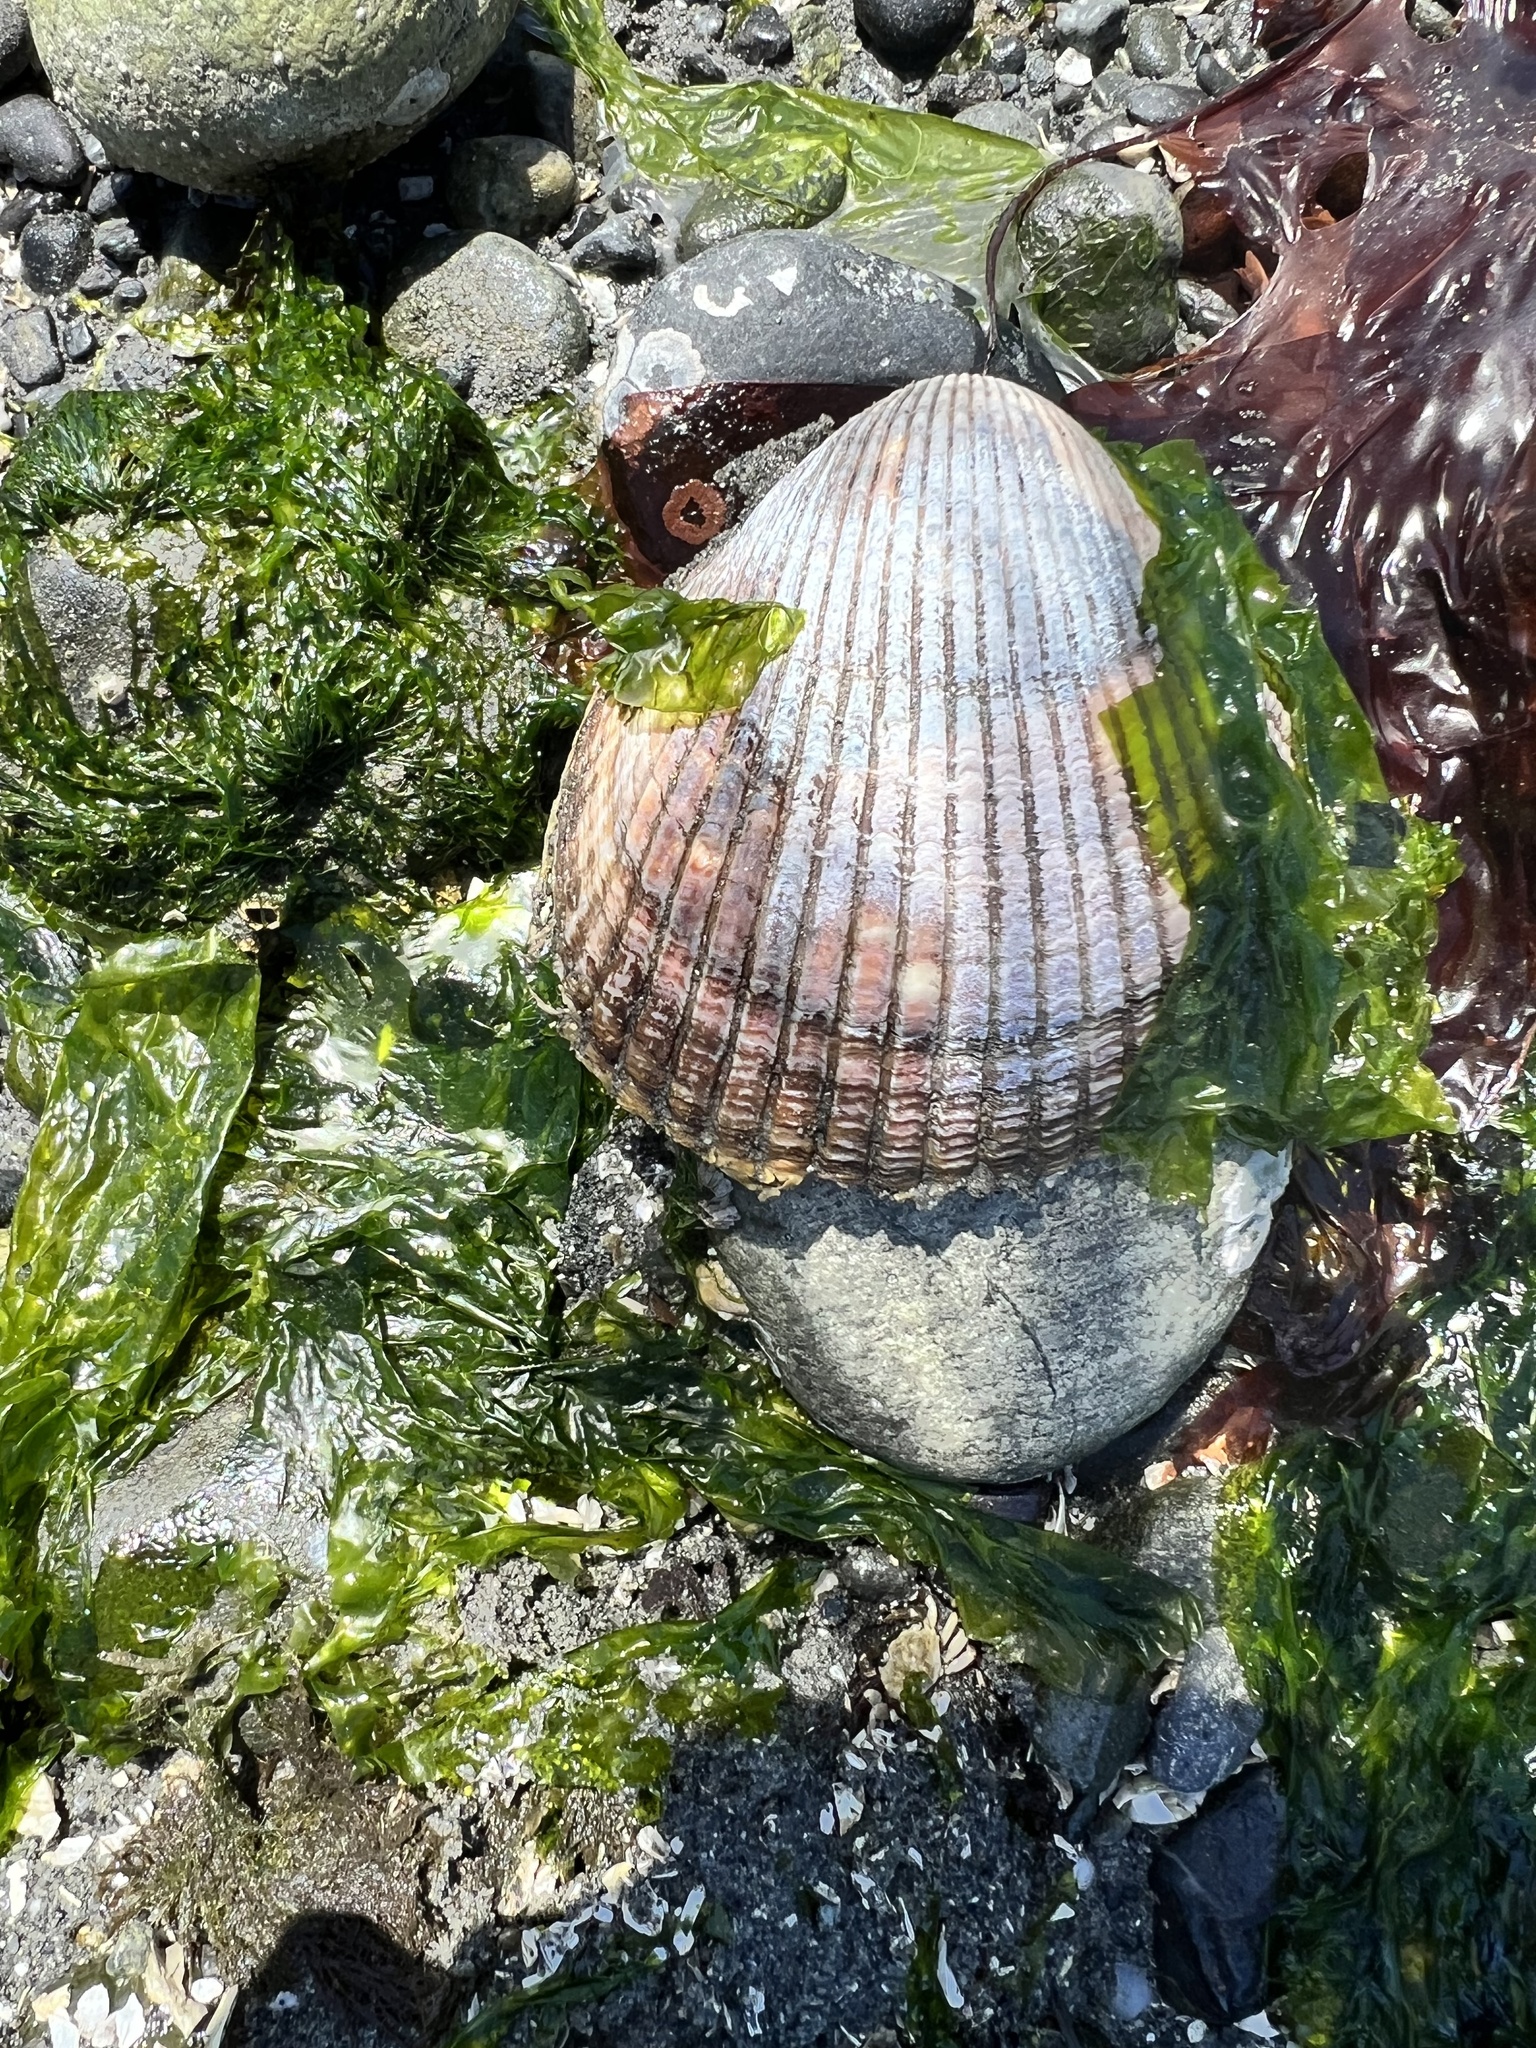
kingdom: Animalia
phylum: Mollusca
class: Bivalvia
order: Cardiida
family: Cardiidae
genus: Clinocardium
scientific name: Clinocardium nuttallii
